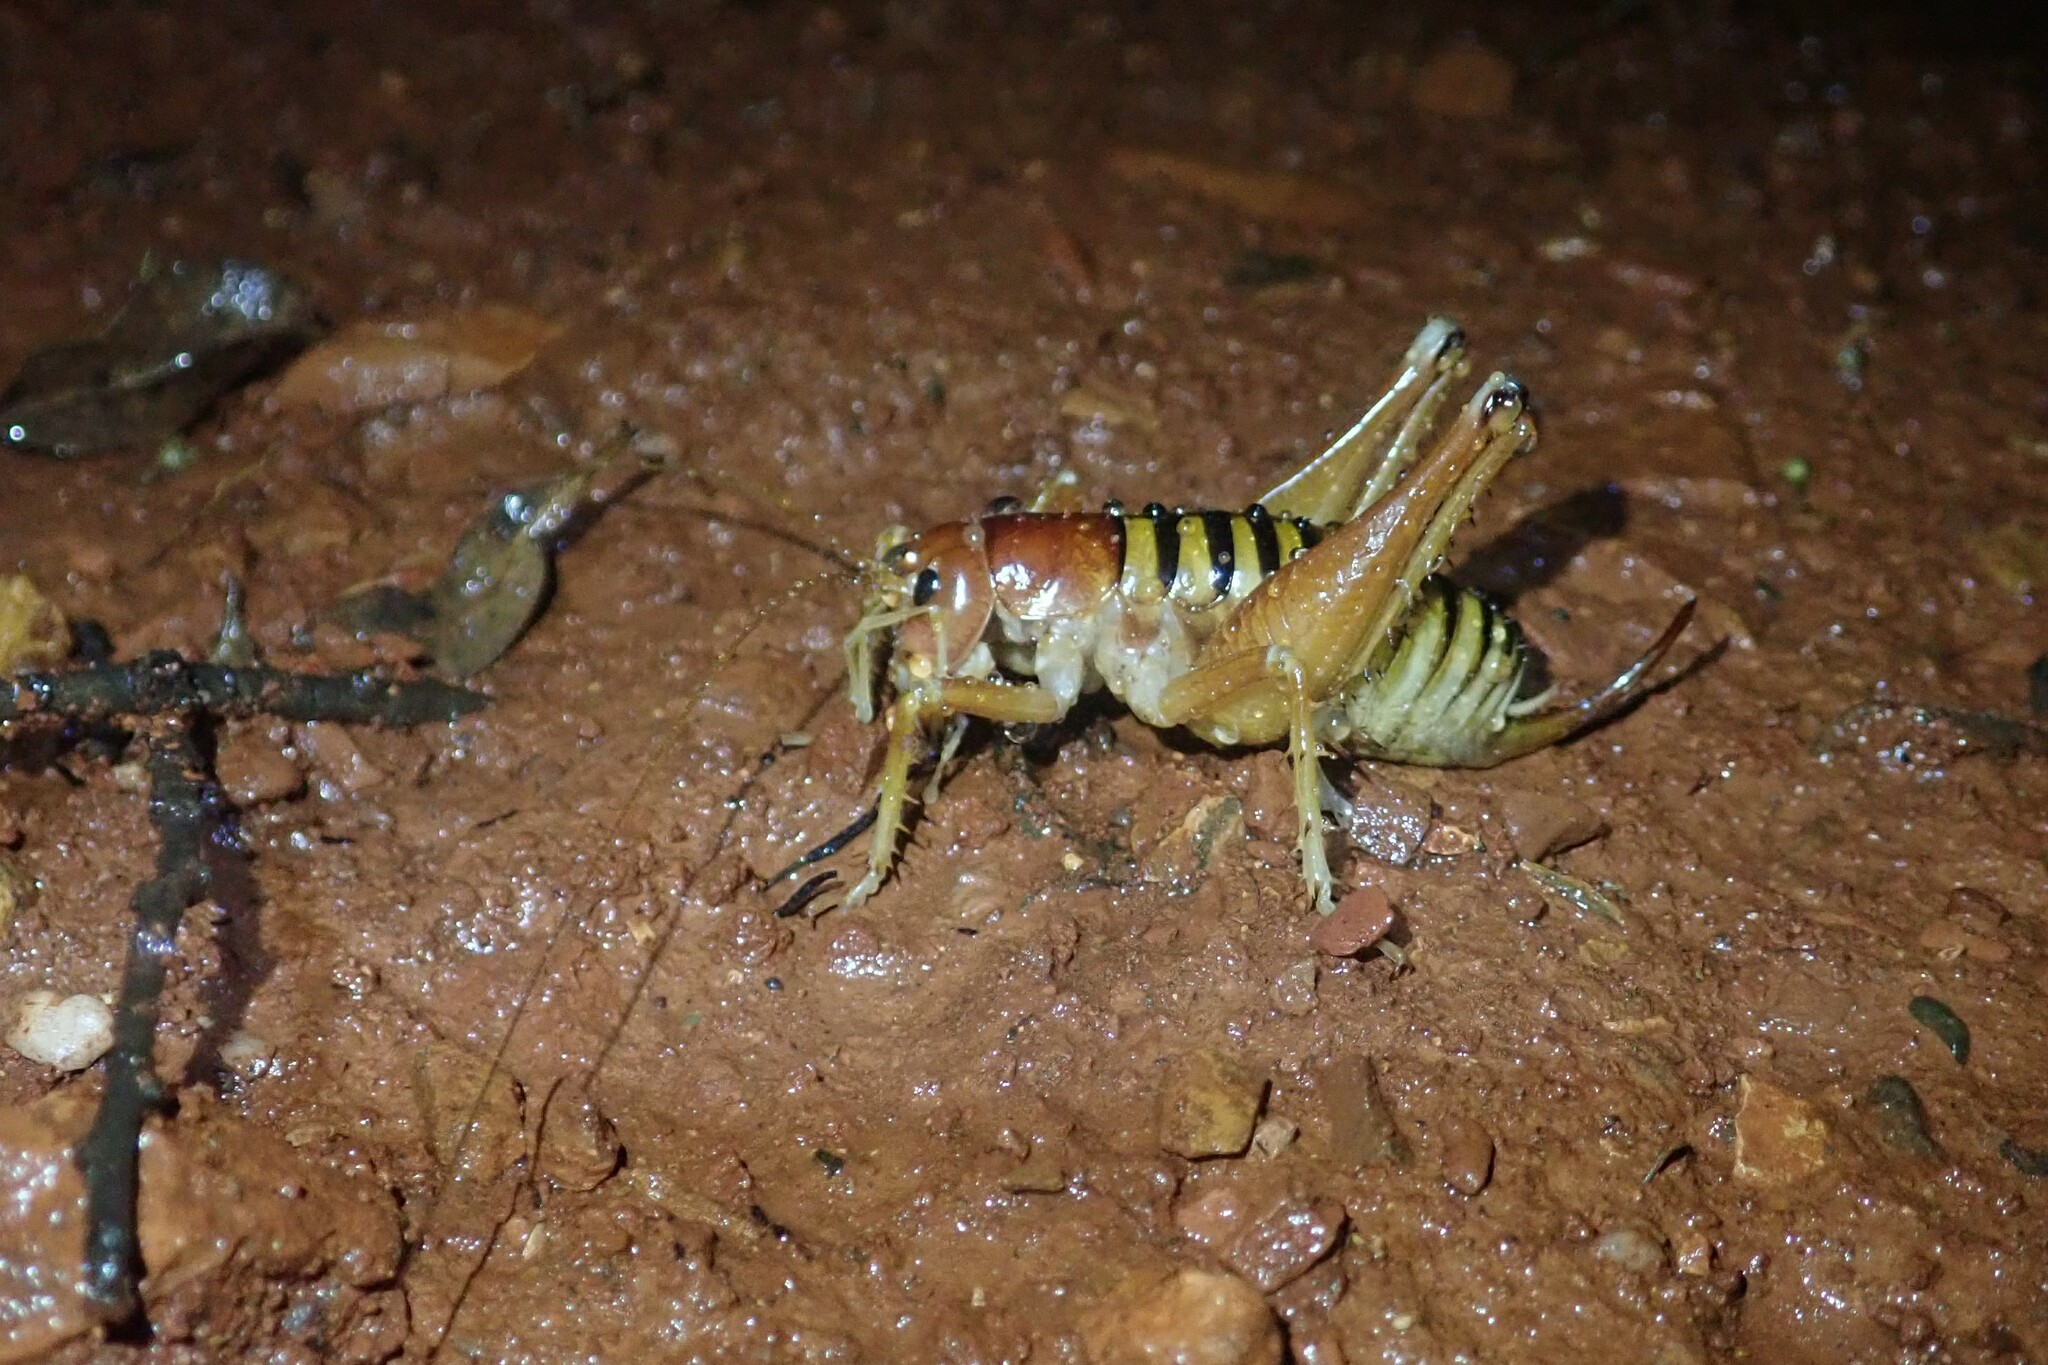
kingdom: Animalia
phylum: Arthropoda
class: Insecta
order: Orthoptera
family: Anostostomatidae
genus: Libanasidus
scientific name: Libanasidus vittatus
